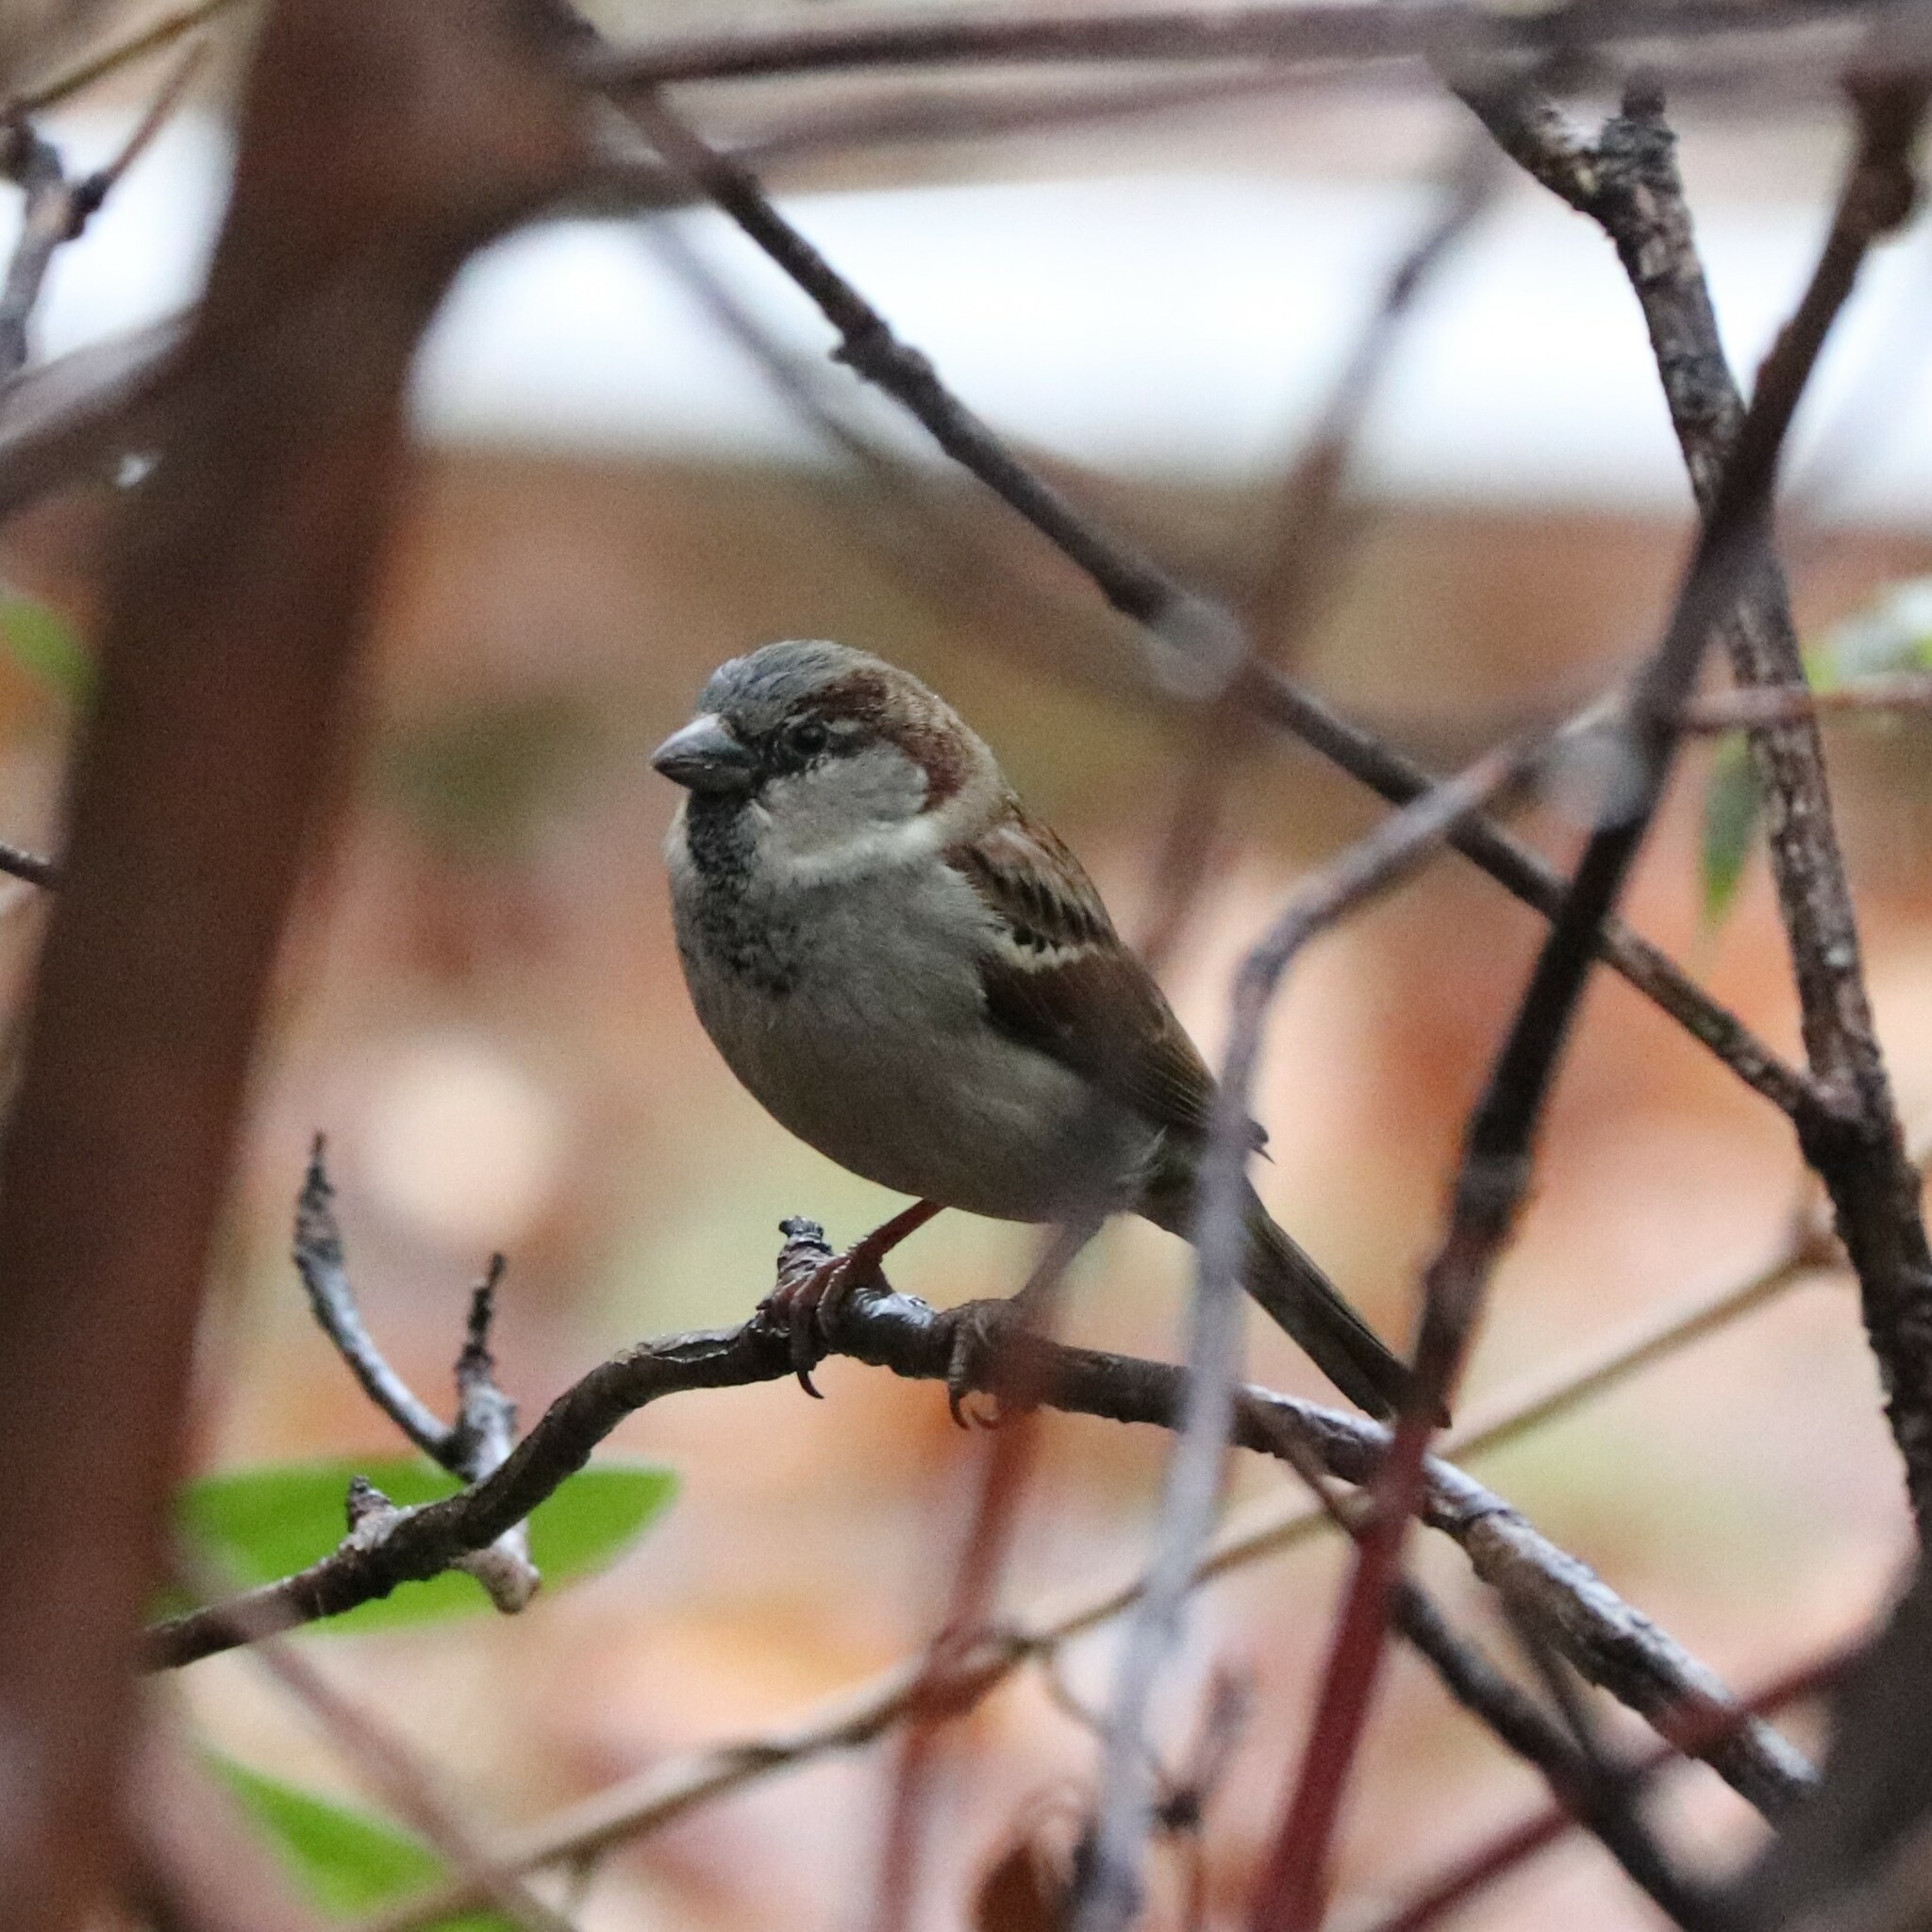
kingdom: Animalia
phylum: Chordata
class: Aves
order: Passeriformes
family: Passeridae
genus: Passer
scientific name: Passer domesticus
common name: House sparrow
